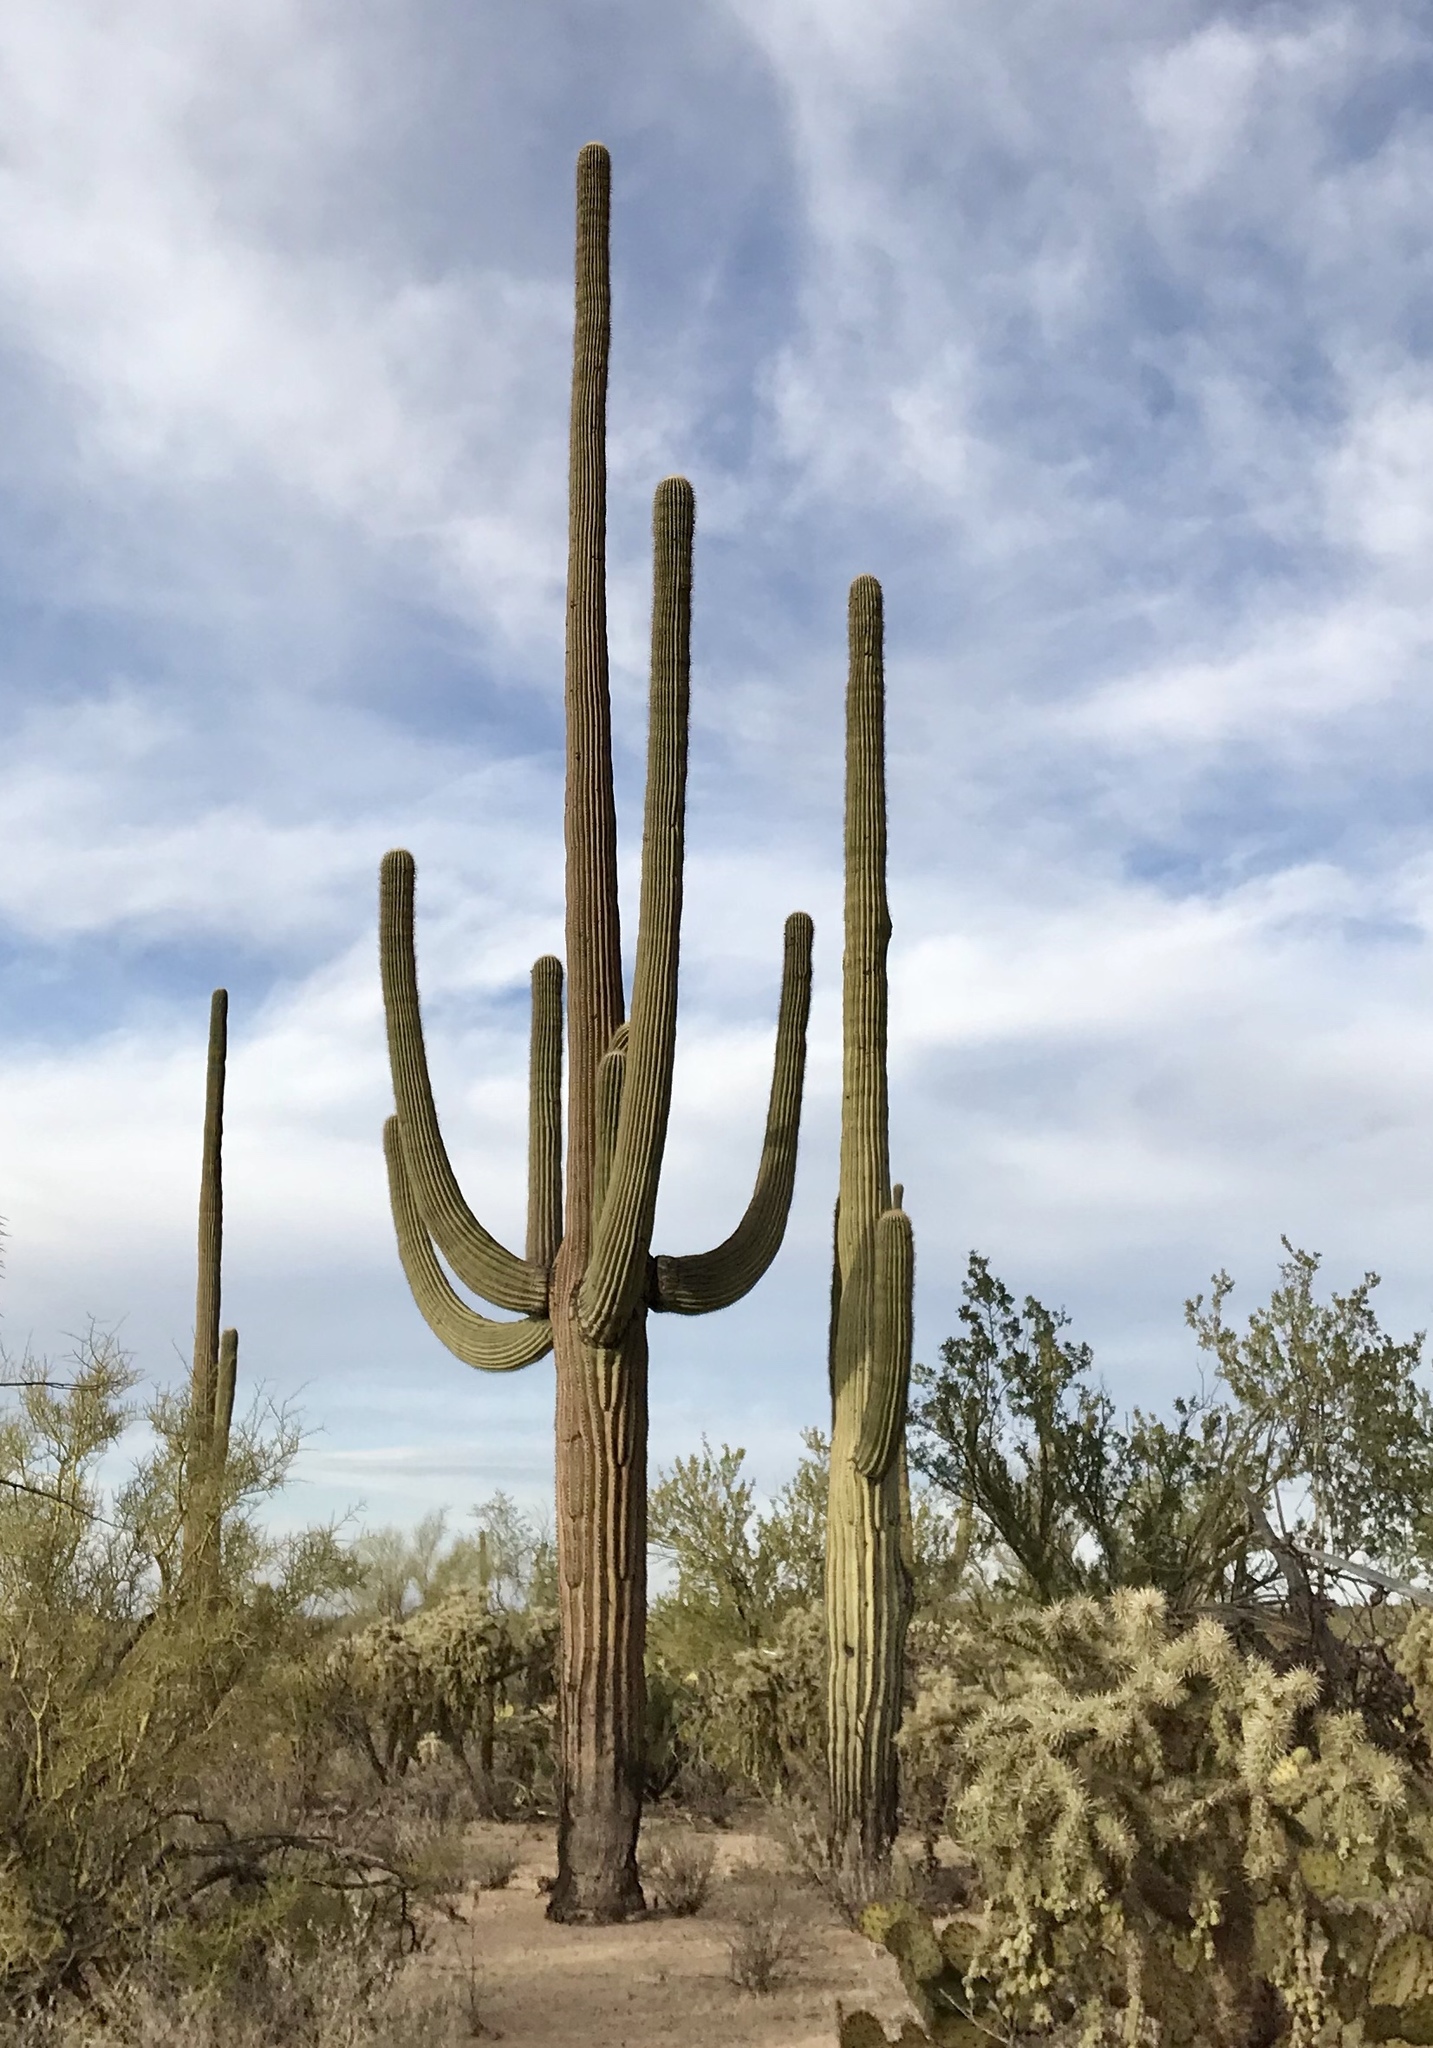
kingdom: Plantae
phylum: Tracheophyta
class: Magnoliopsida
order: Caryophyllales
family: Cactaceae
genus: Carnegiea
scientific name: Carnegiea gigantea
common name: Saguaro
